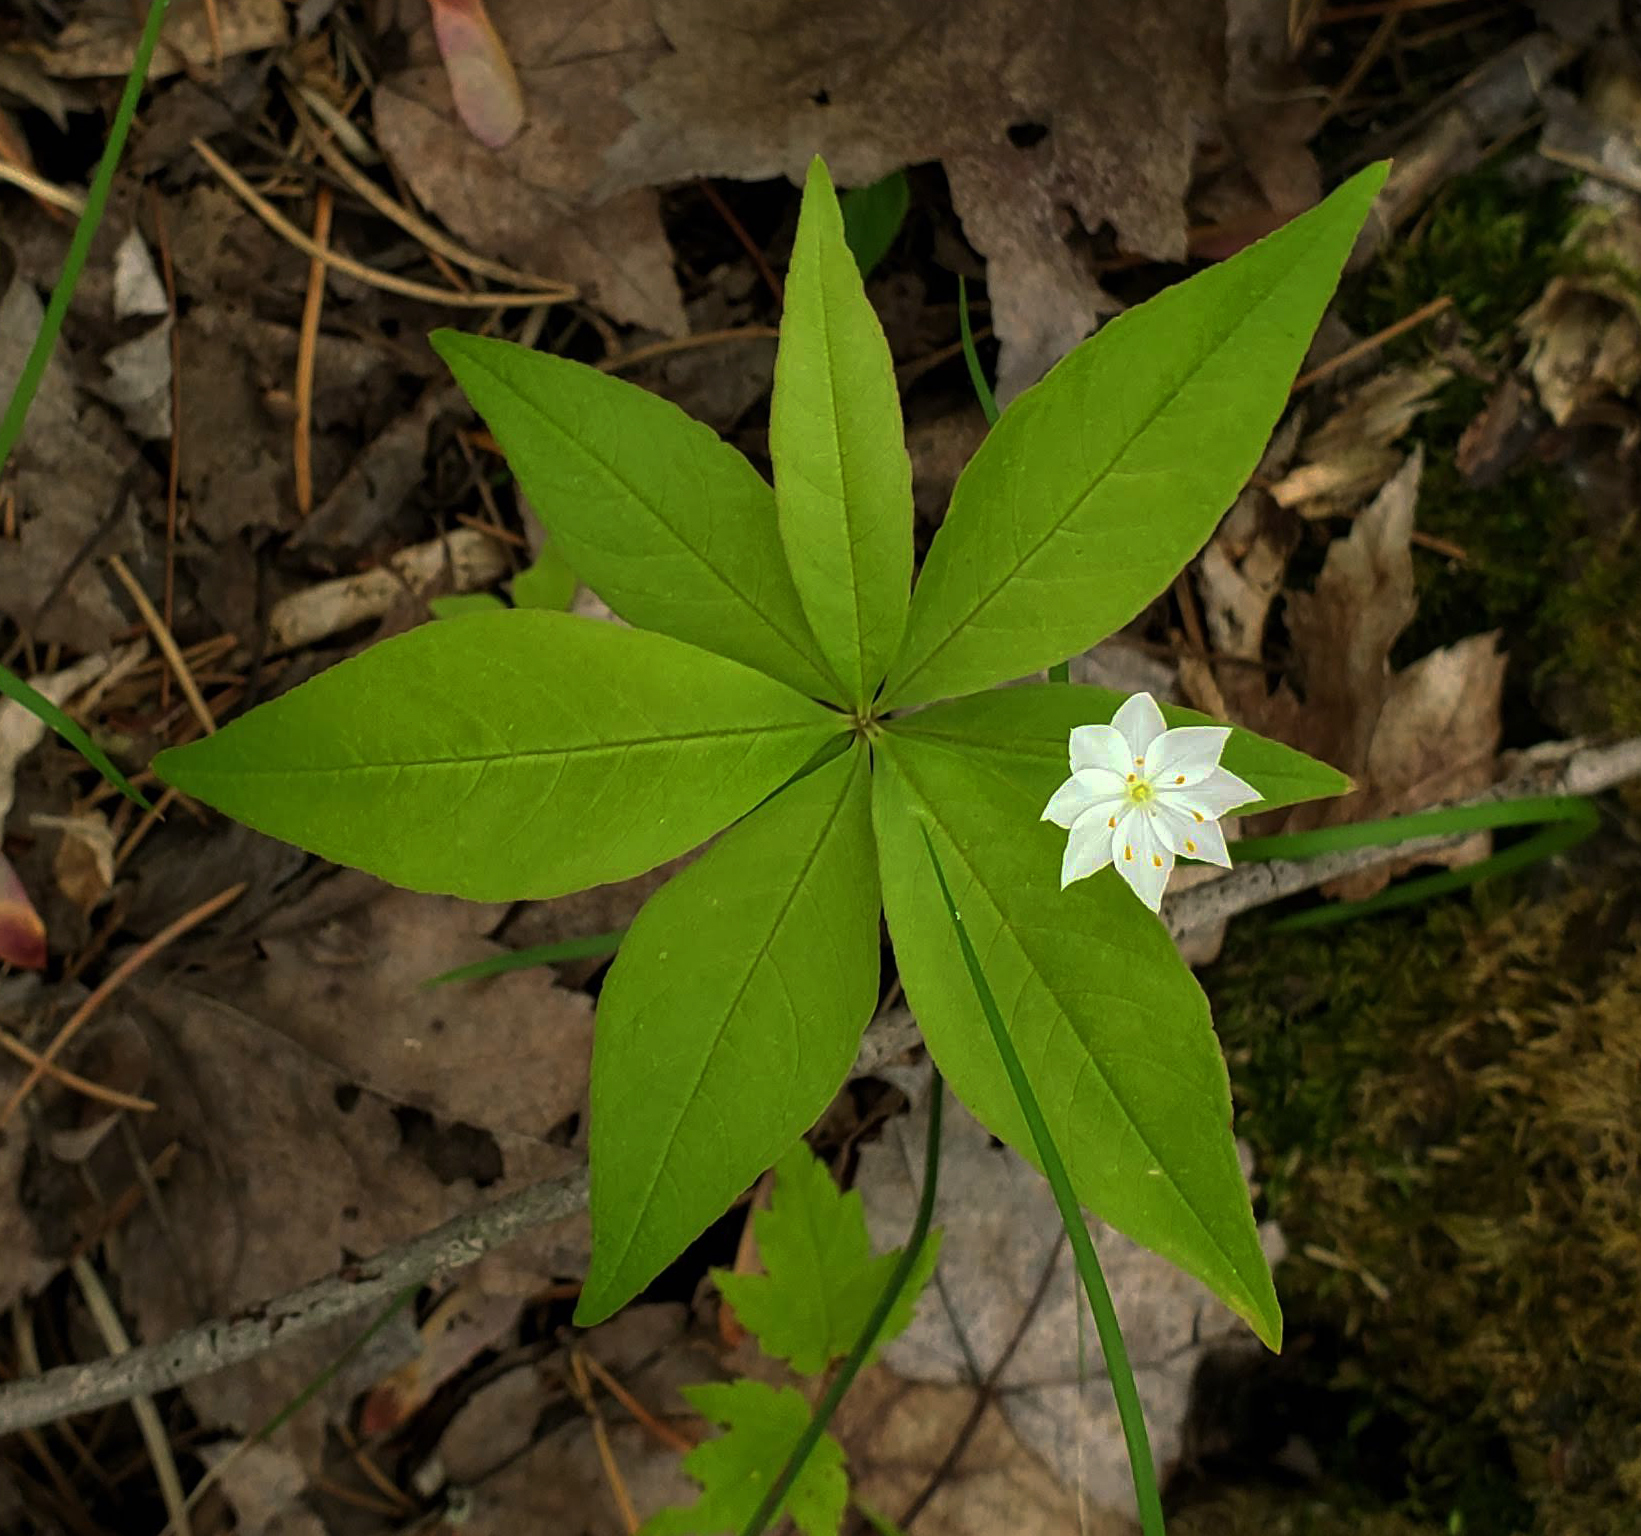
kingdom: Plantae
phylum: Tracheophyta
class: Magnoliopsida
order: Ericales
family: Primulaceae
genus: Lysimachia
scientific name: Lysimachia borealis
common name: American starflower
